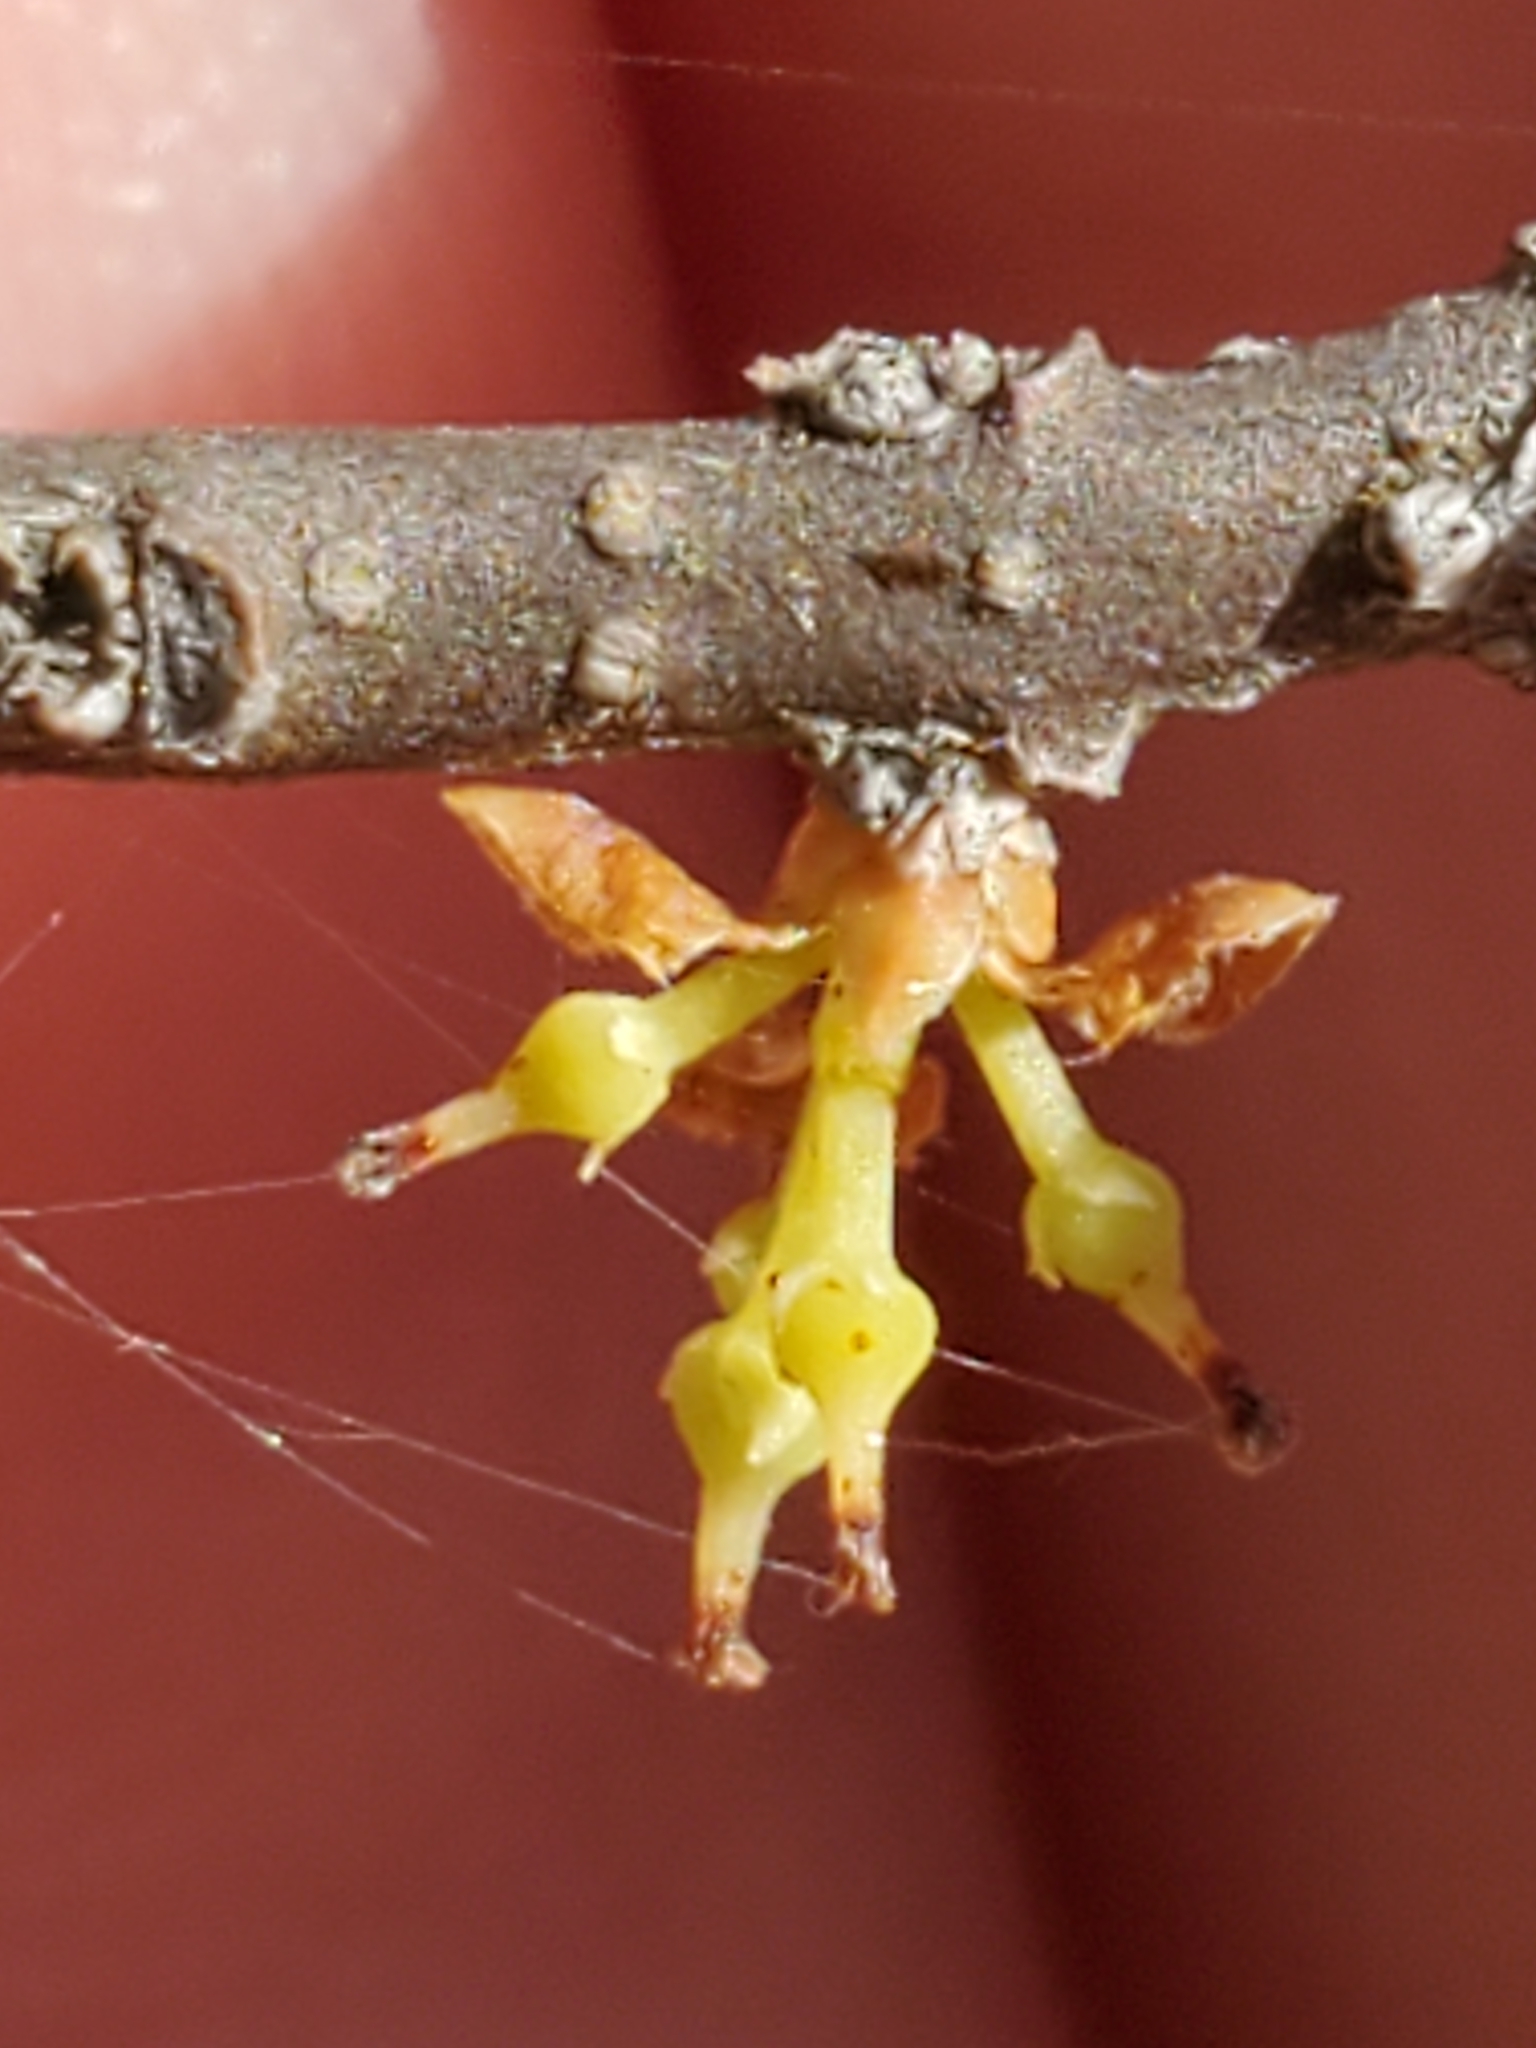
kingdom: Plantae
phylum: Tracheophyta
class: Magnoliopsida
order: Lamiales
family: Oleaceae
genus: Forestiera
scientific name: Forestiera reticulata
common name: Netleaf swamp-privet
